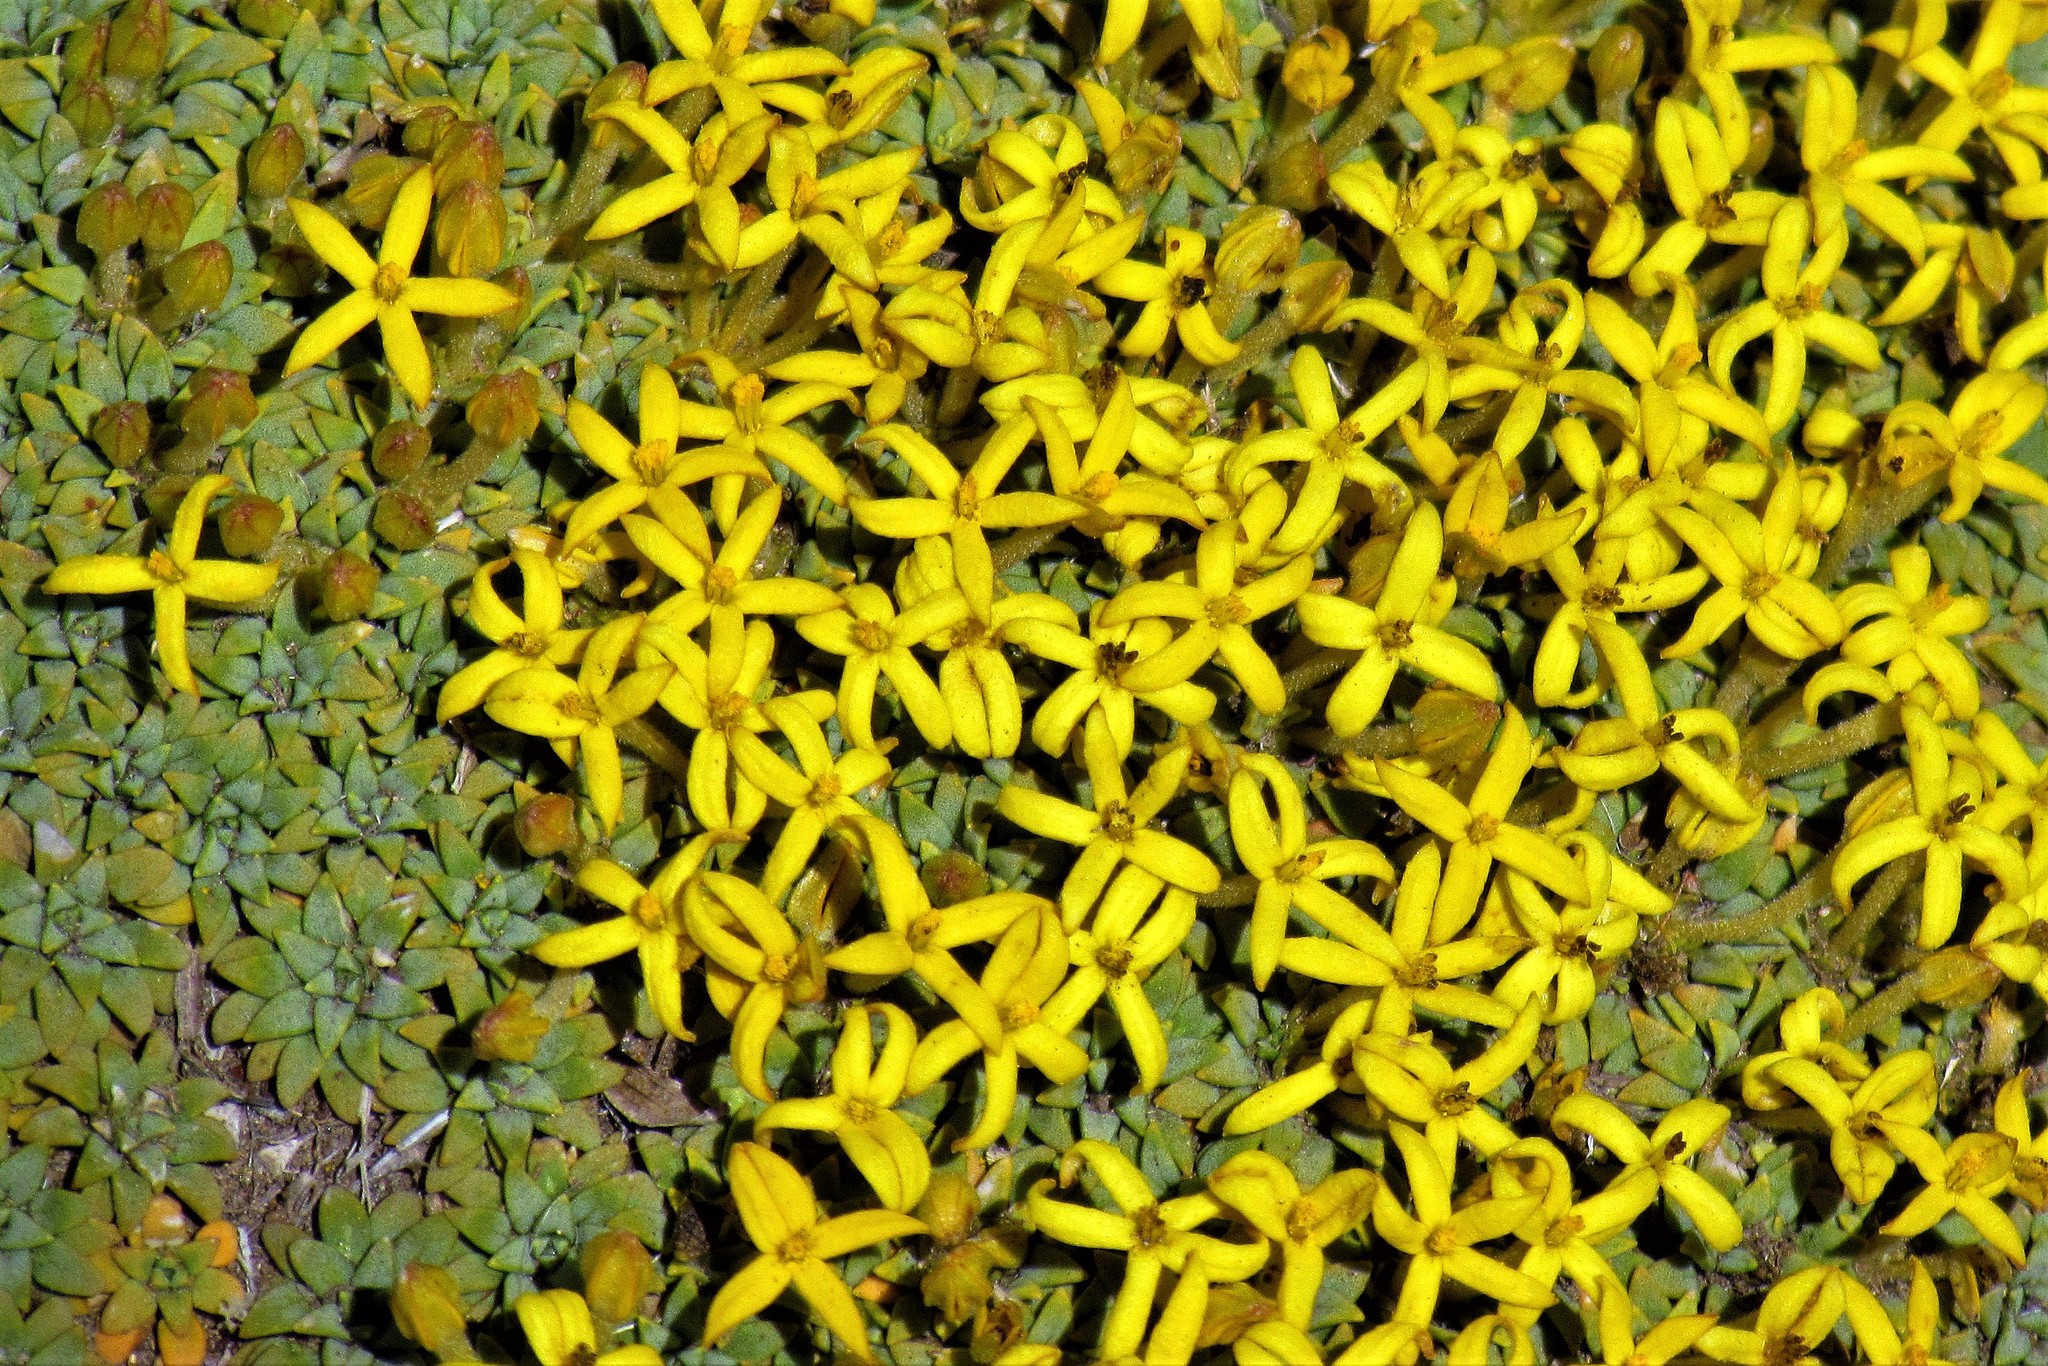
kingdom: Plantae
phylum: Tracheophyta
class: Magnoliopsida
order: Gentianales
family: Rubiaceae
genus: Oreopolus
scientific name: Oreopolus glacialis
